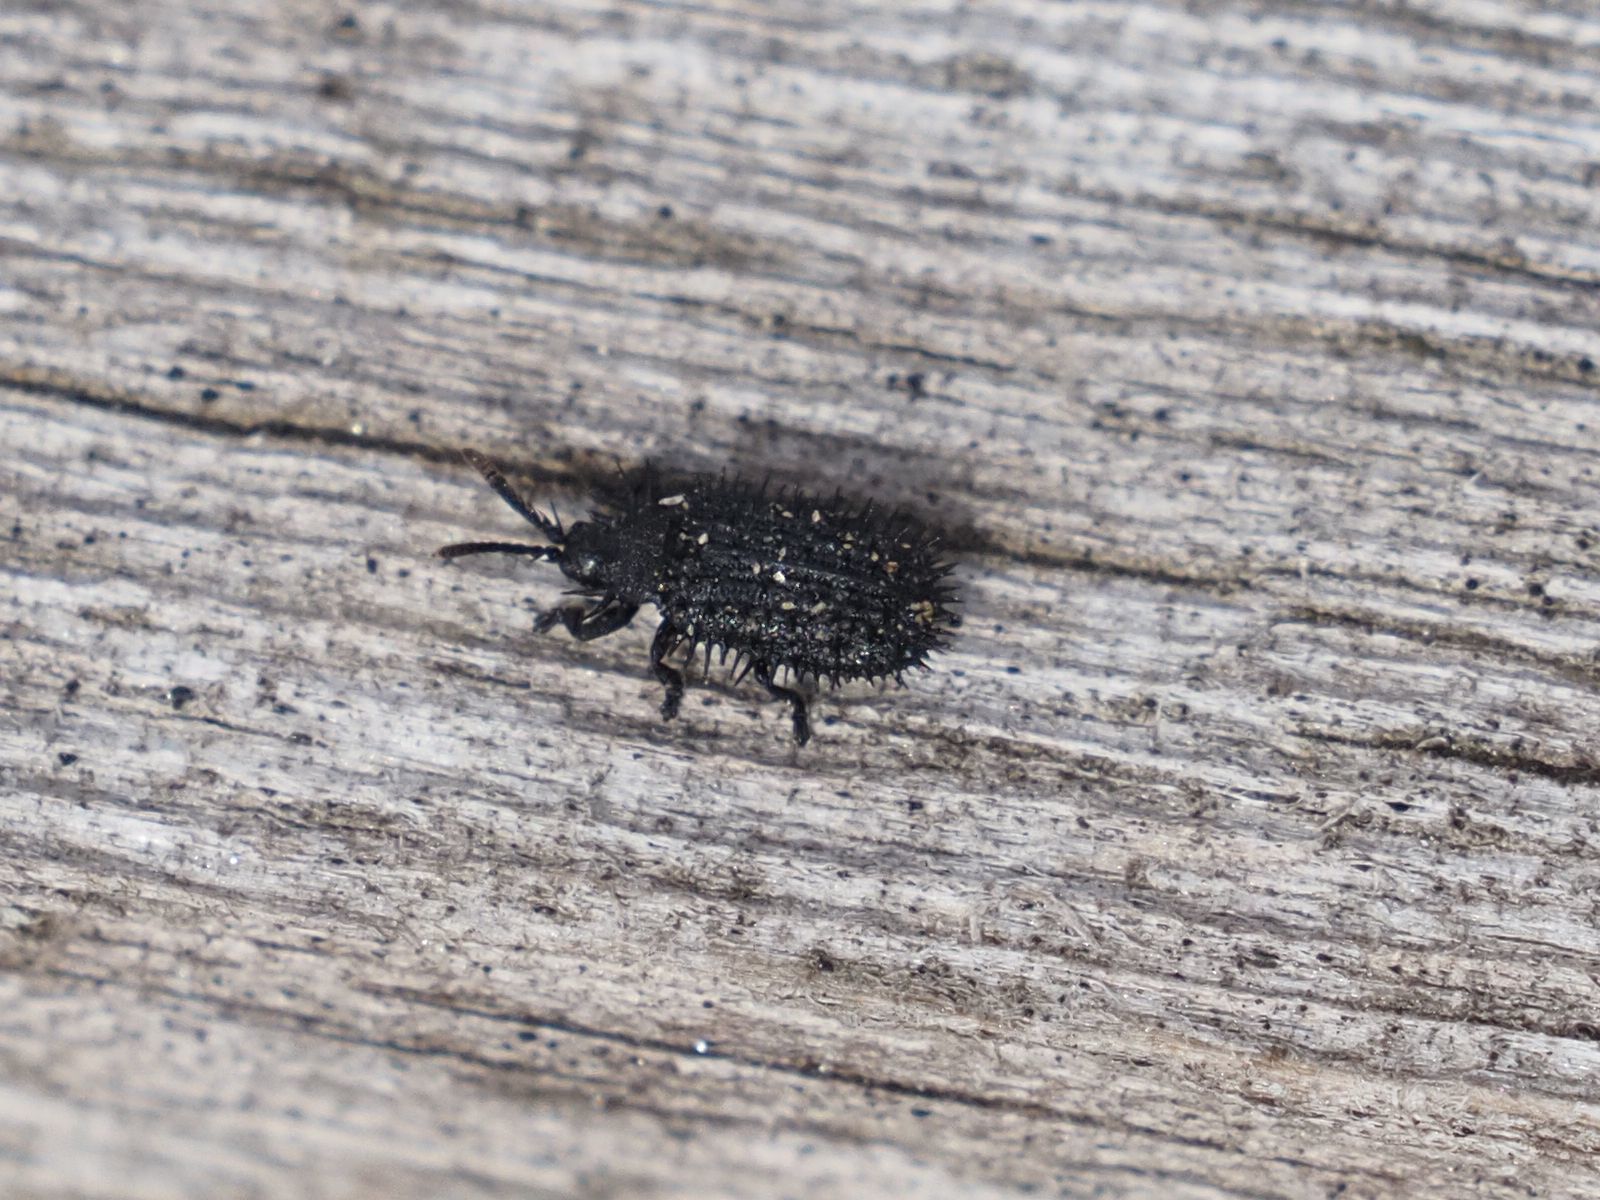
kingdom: Animalia
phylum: Arthropoda
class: Insecta
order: Coleoptera
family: Chrysomelidae
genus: Hispa
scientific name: Hispa atra
